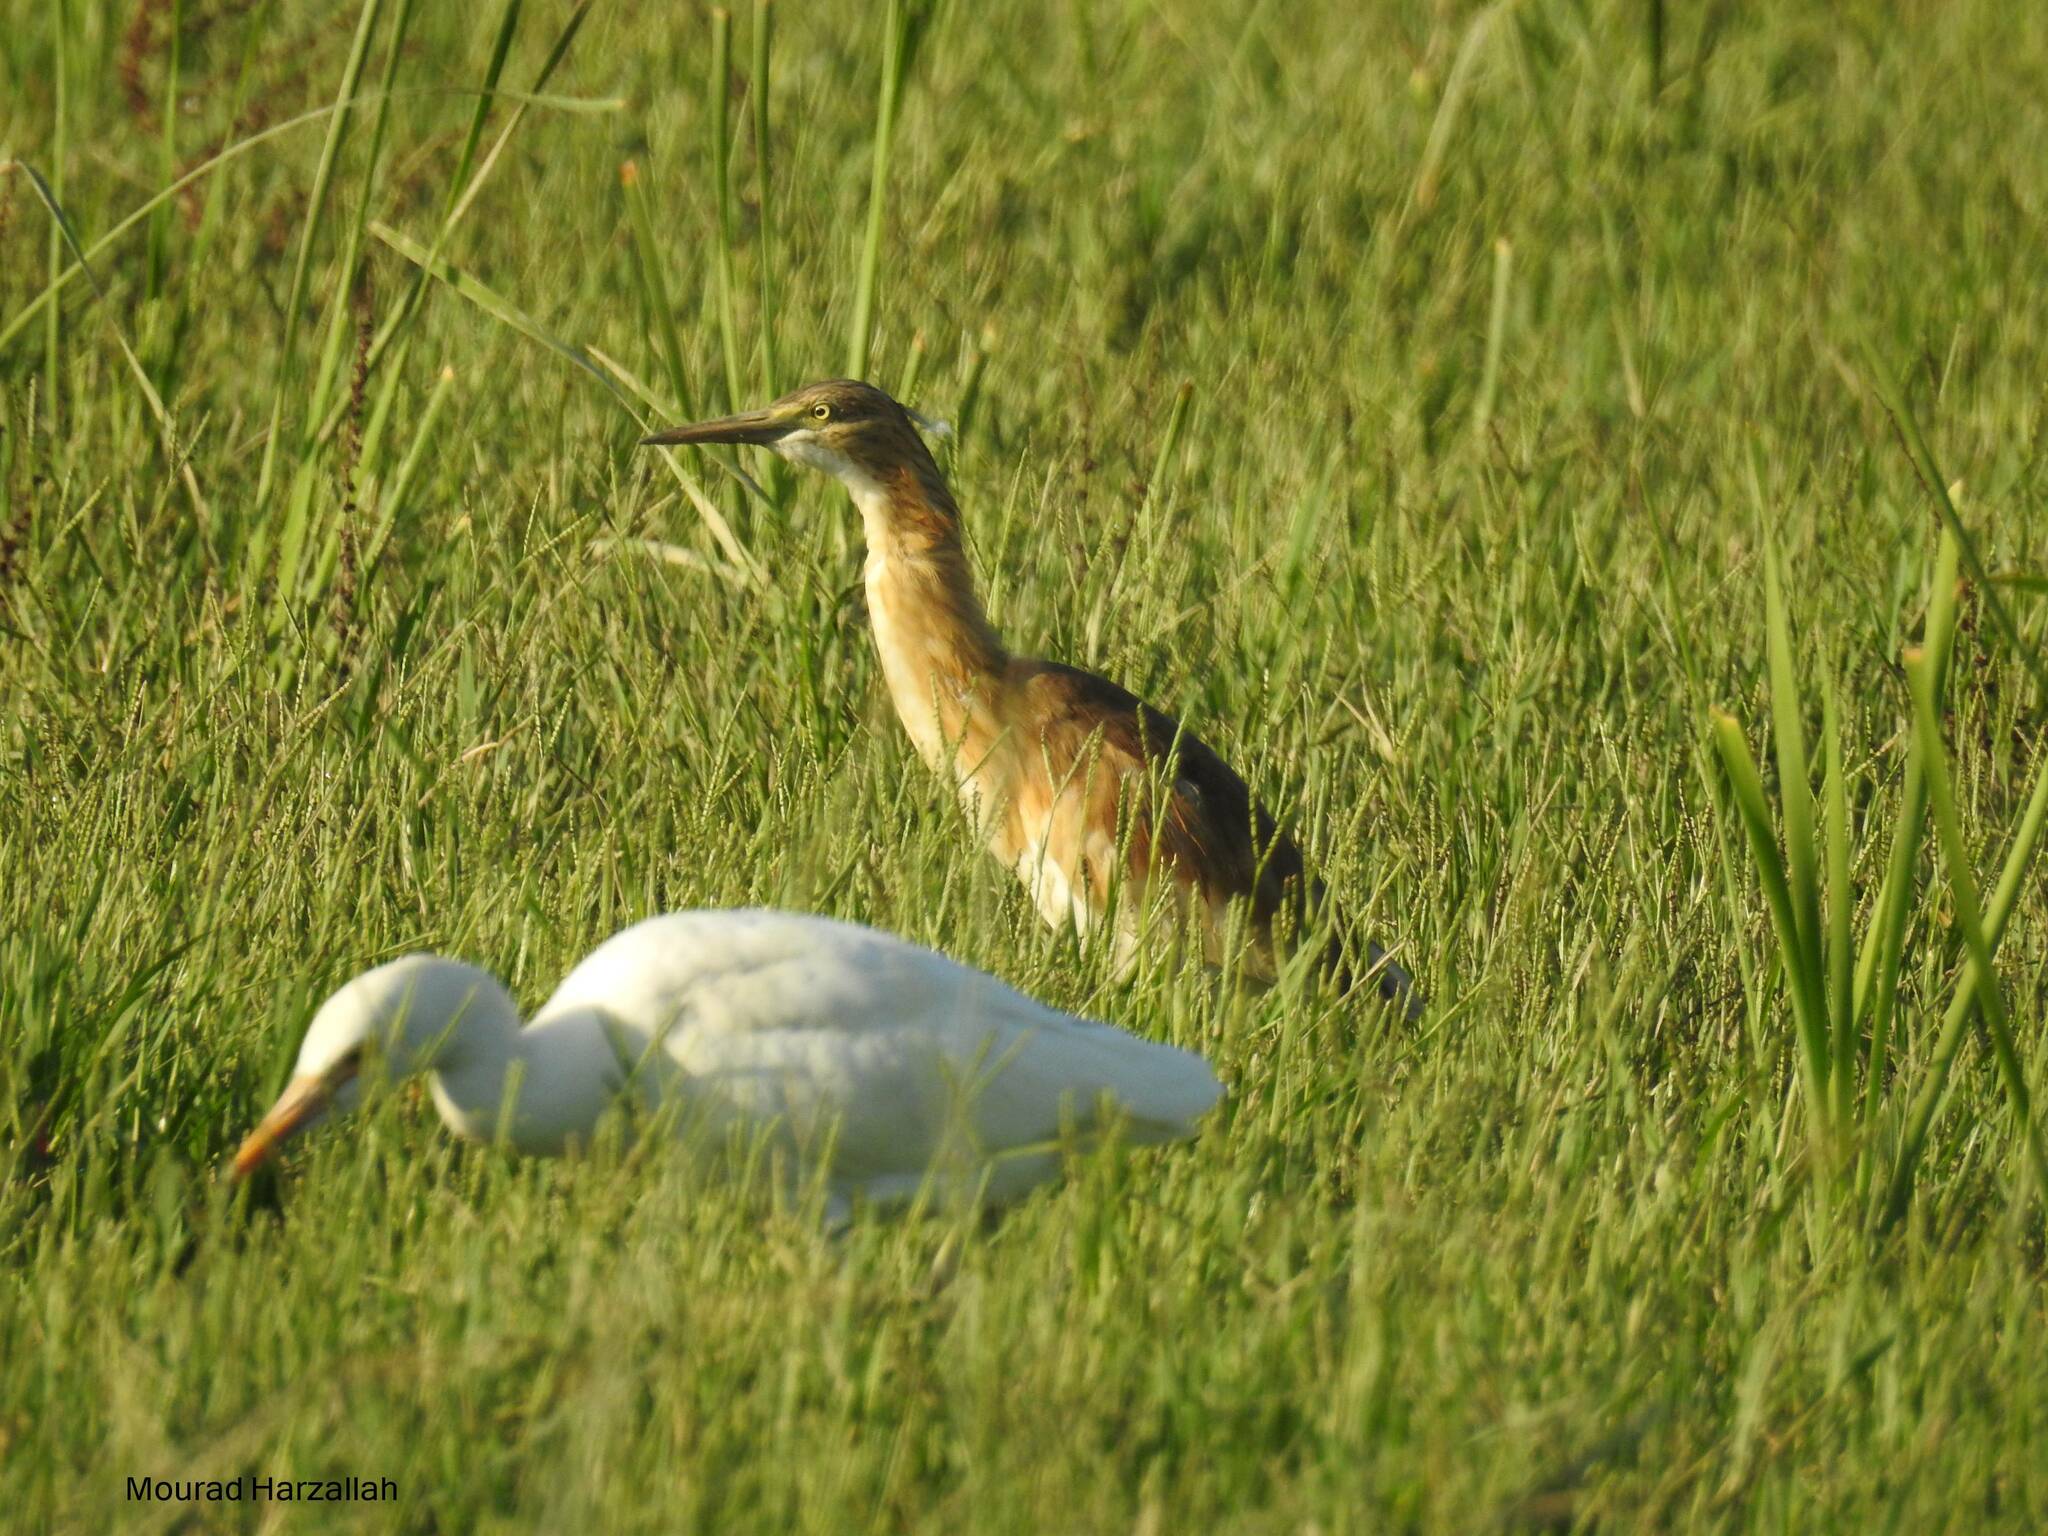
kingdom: Animalia
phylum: Chordata
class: Aves
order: Pelecaniformes
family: Ardeidae
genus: Ardeola
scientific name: Ardeola ralloides
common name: Squacco heron
